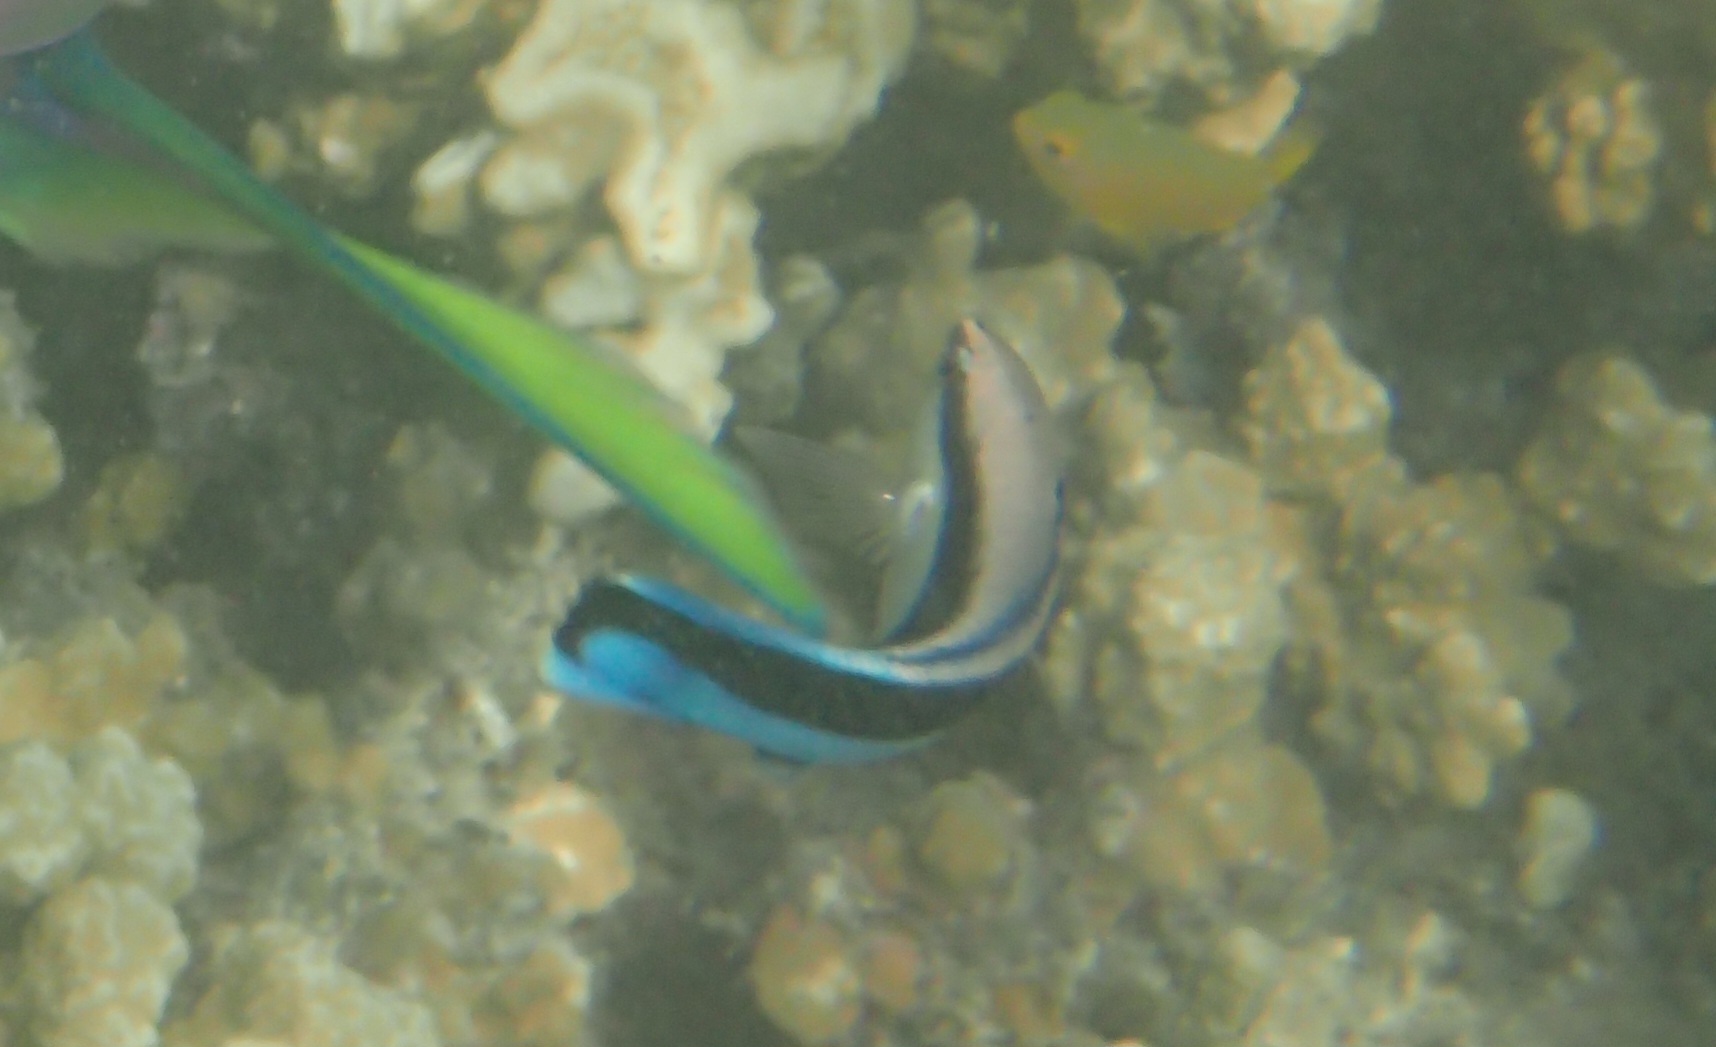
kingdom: Animalia
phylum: Chordata
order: Perciformes
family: Labridae
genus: Labroides
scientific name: Labroides dimidiatus
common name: Blue diesel wrasse
